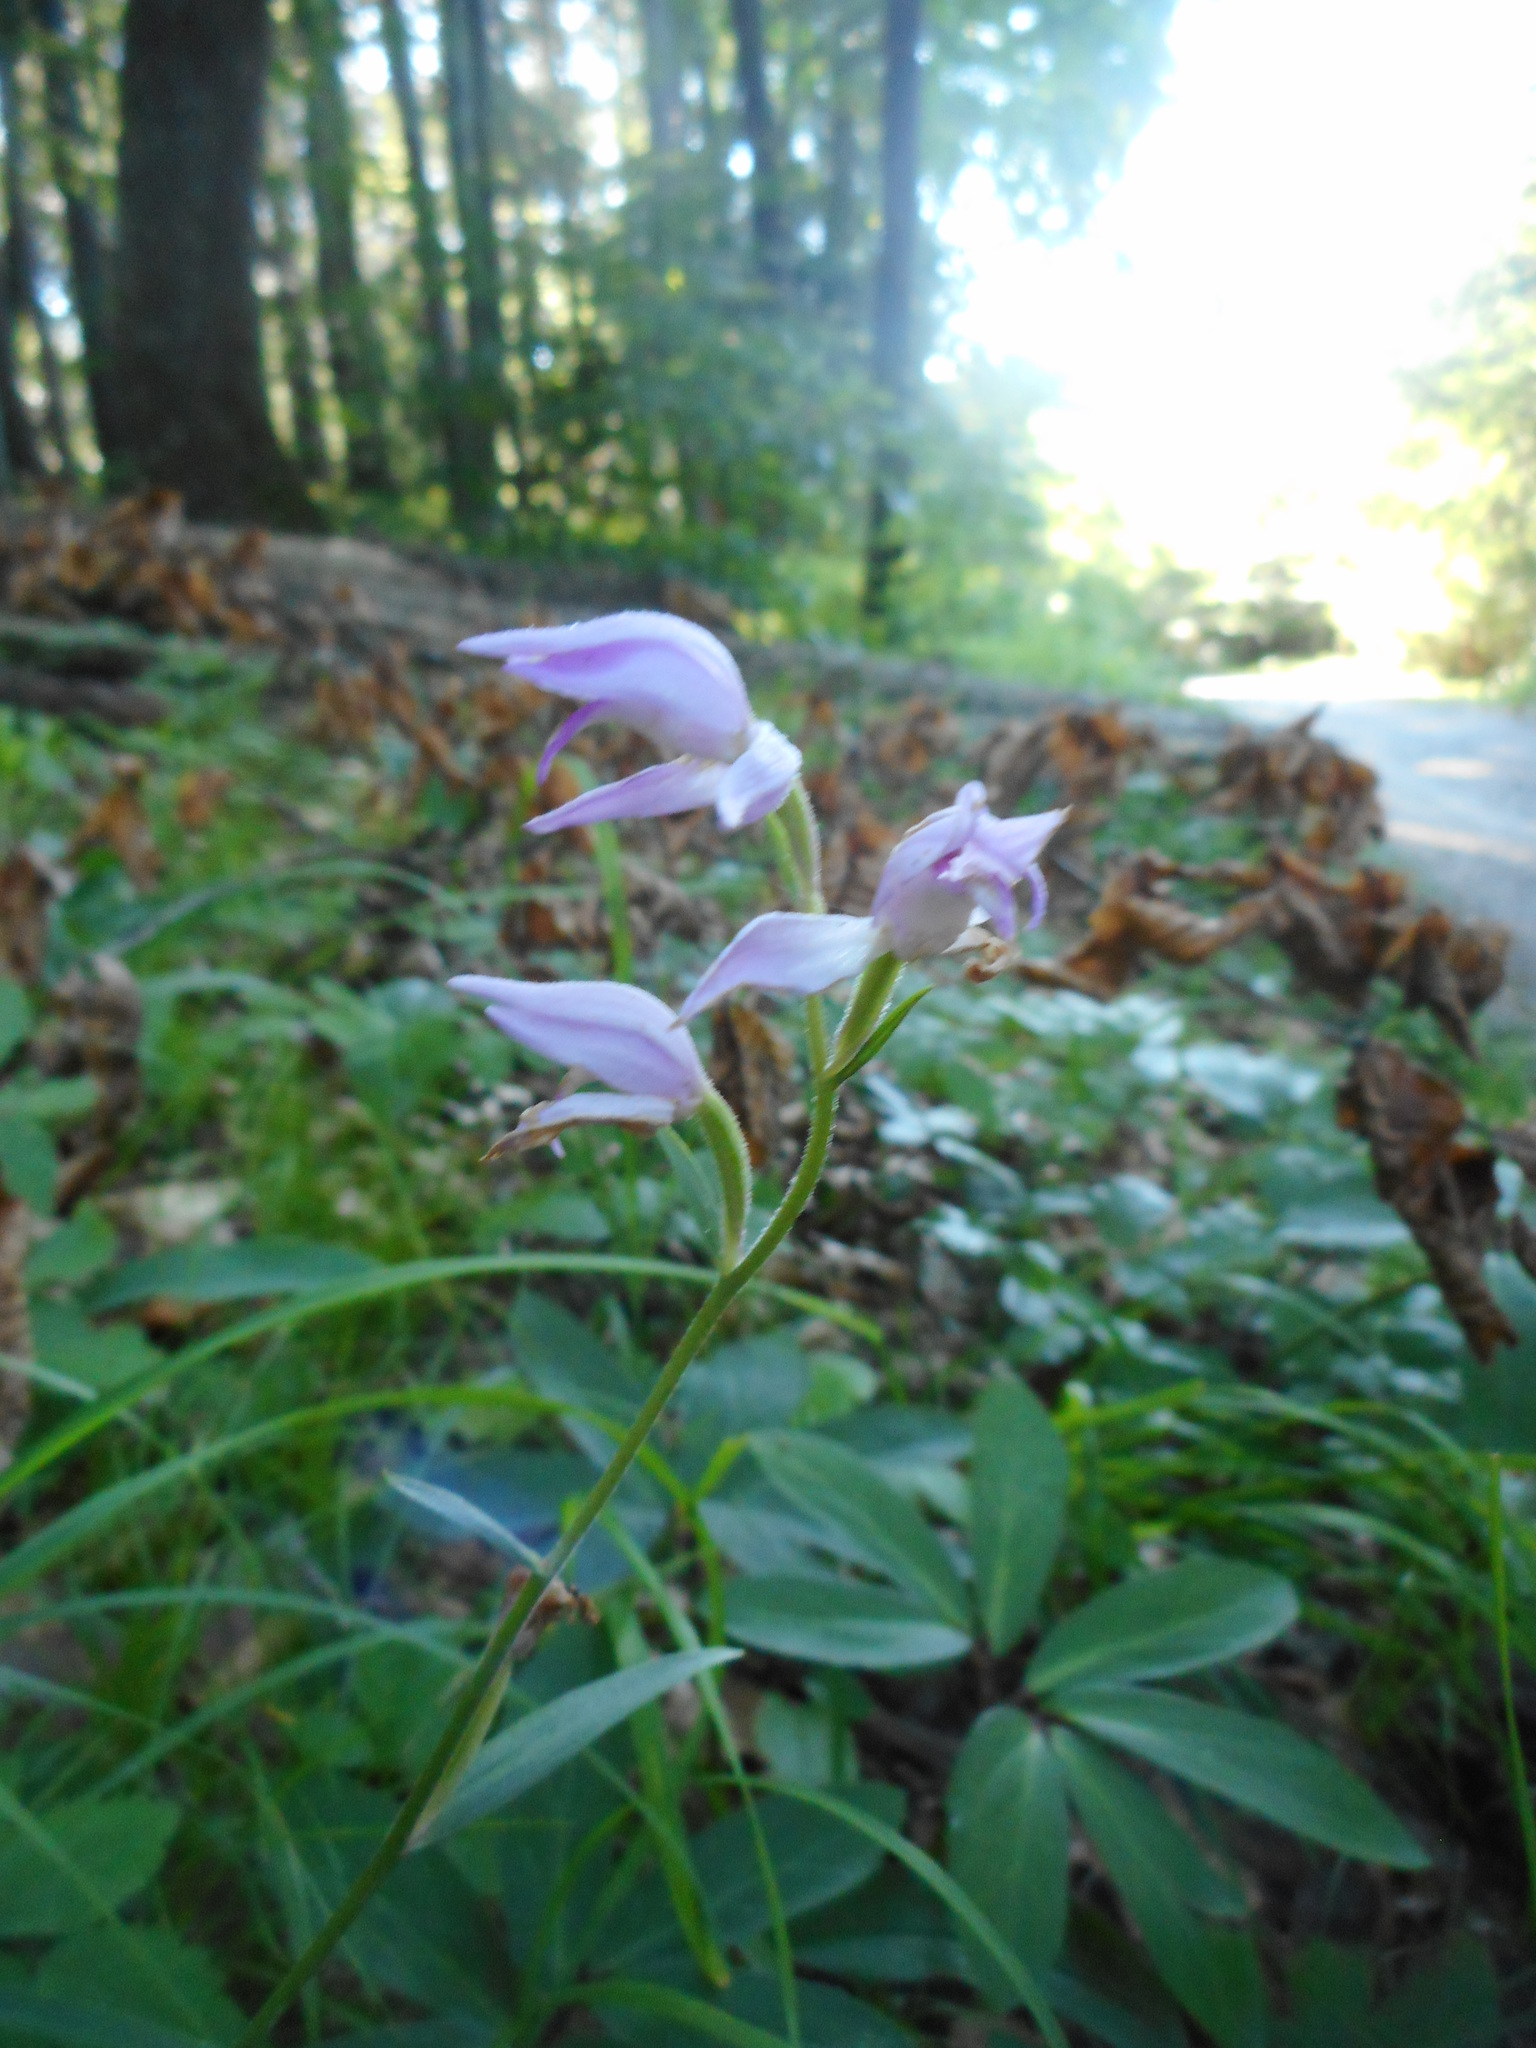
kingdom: Plantae
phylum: Tracheophyta
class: Liliopsida
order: Asparagales
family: Orchidaceae
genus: Cephalanthera
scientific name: Cephalanthera rubra
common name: Red helleborine
